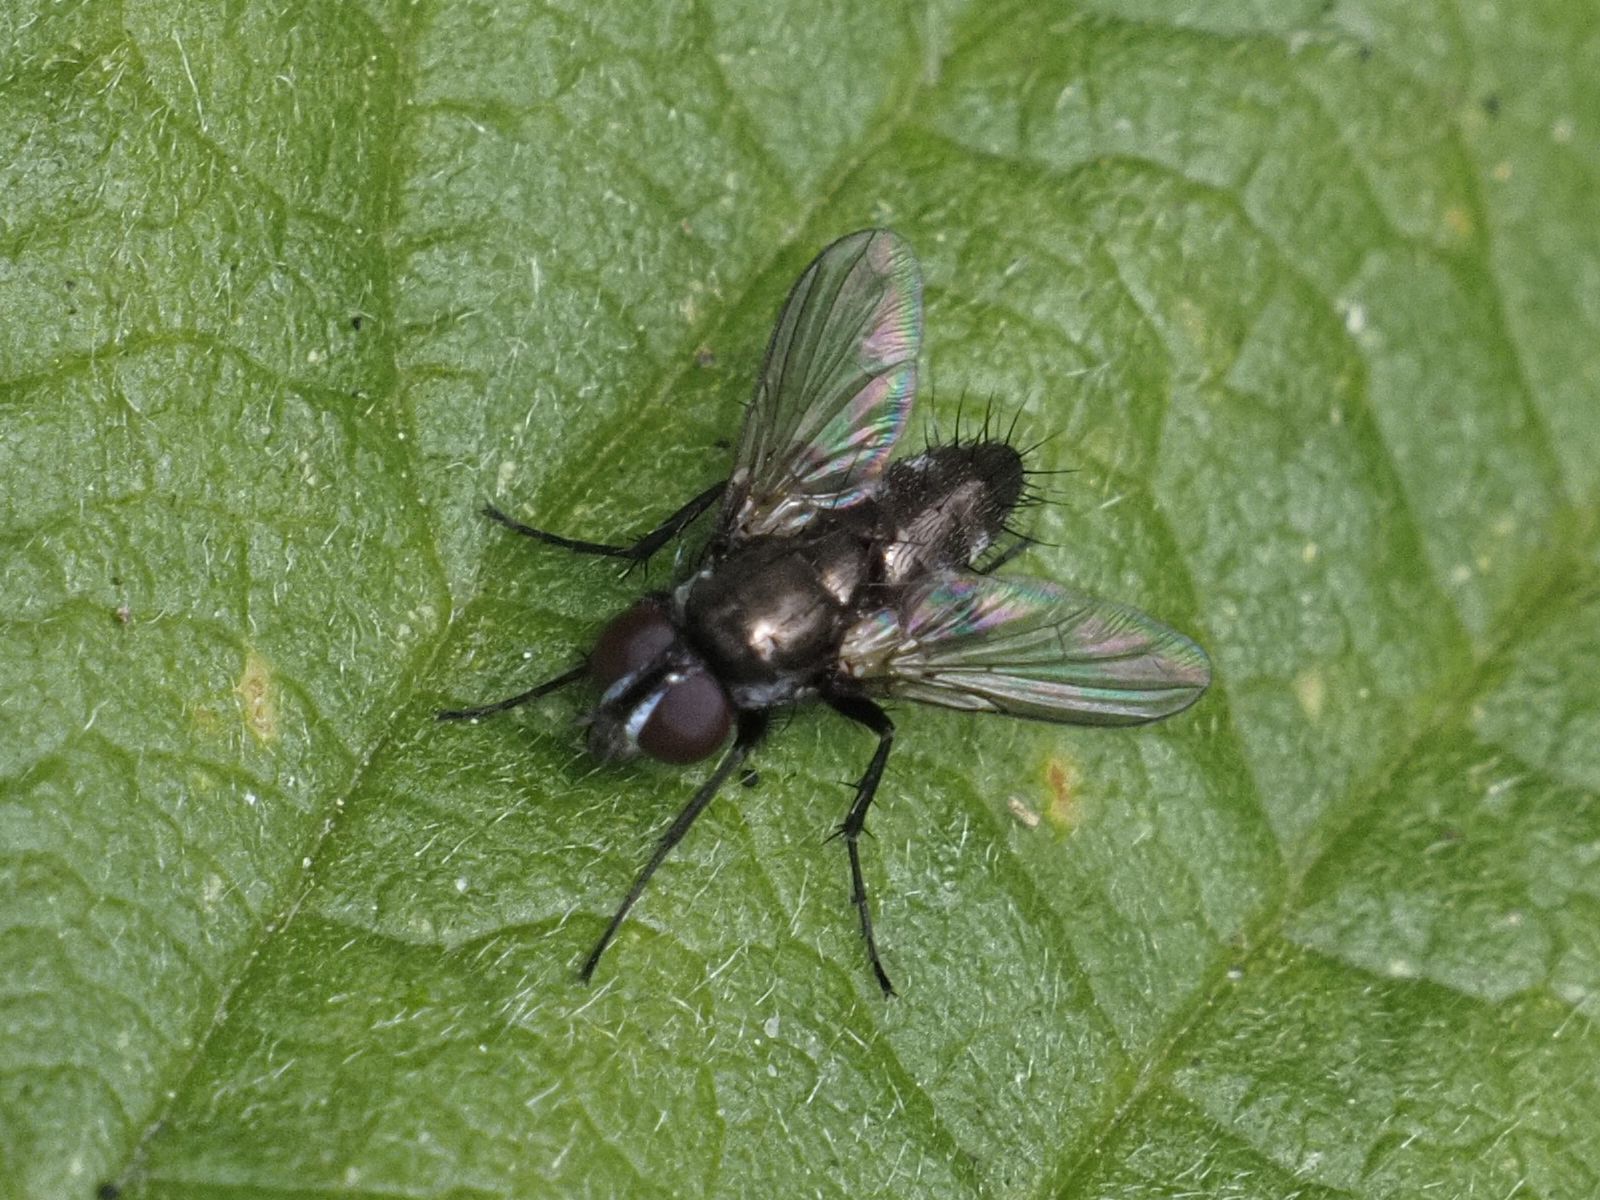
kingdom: Animalia
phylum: Arthropoda
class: Insecta
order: Diptera
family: Calliphoridae
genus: Rhinophora
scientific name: Rhinophora lepida
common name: Pouting woodlouse-fly
